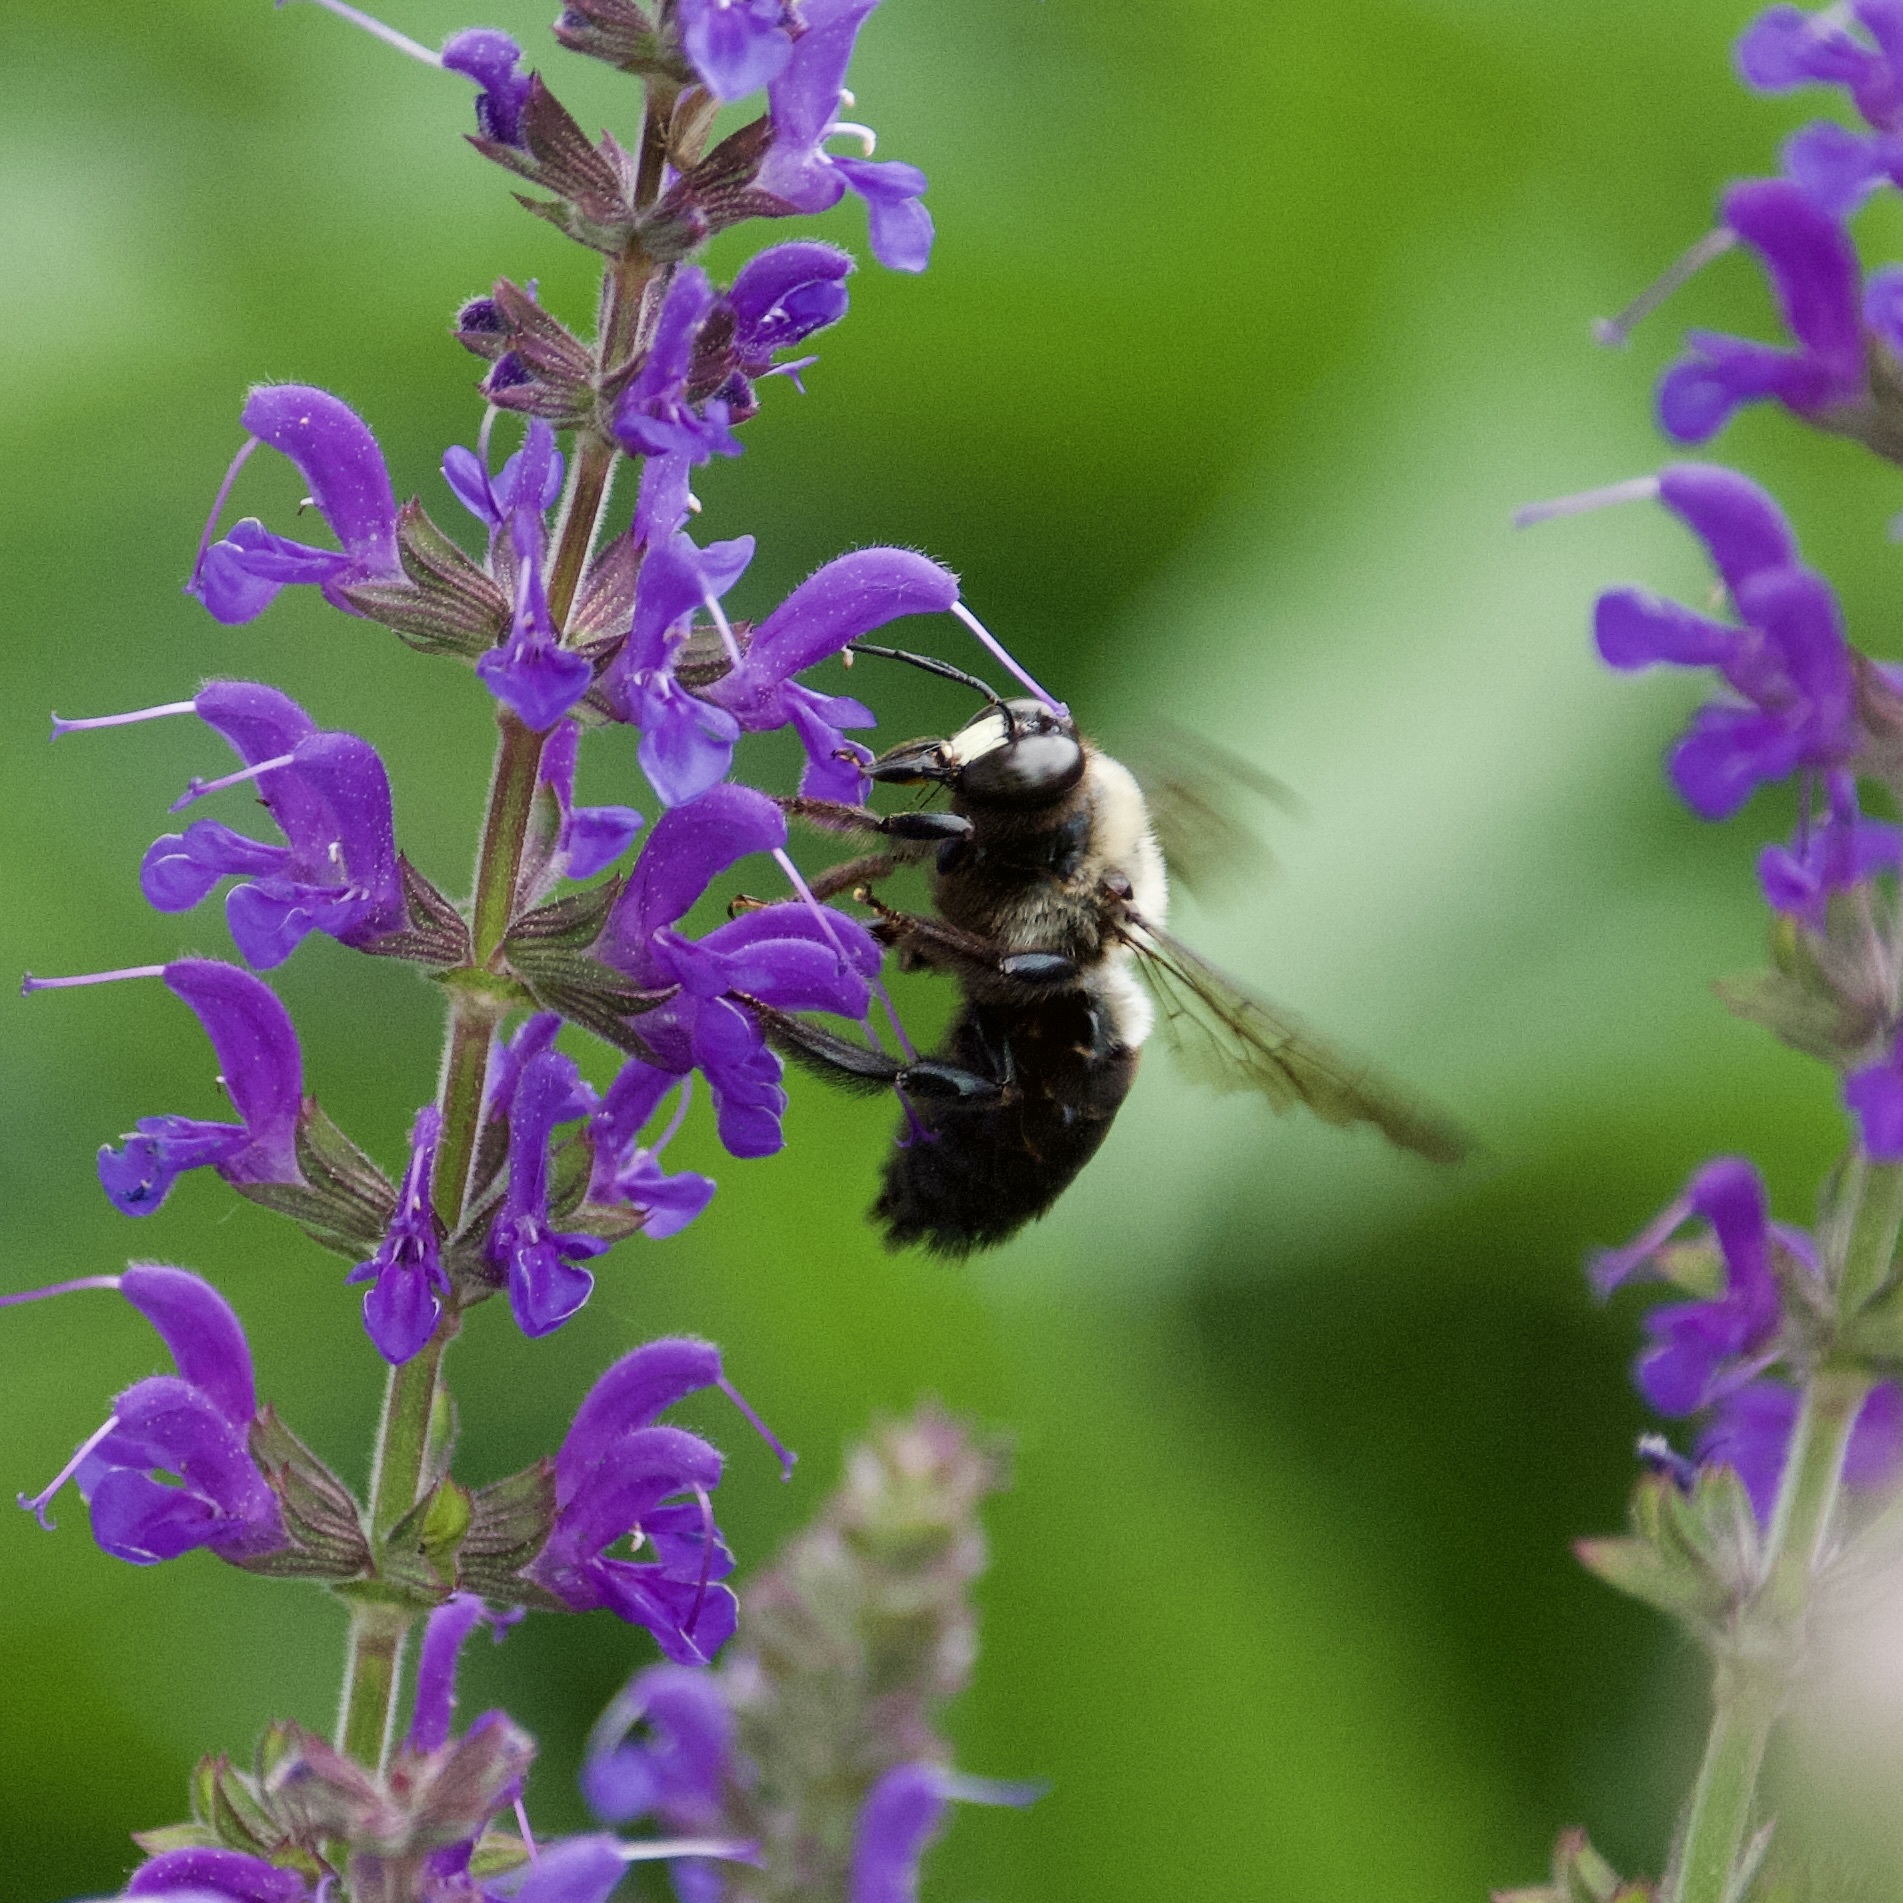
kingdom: Animalia
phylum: Arthropoda
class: Insecta
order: Hymenoptera
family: Apidae
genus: Xylocopa
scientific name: Xylocopa virginica
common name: Carpenter bee
